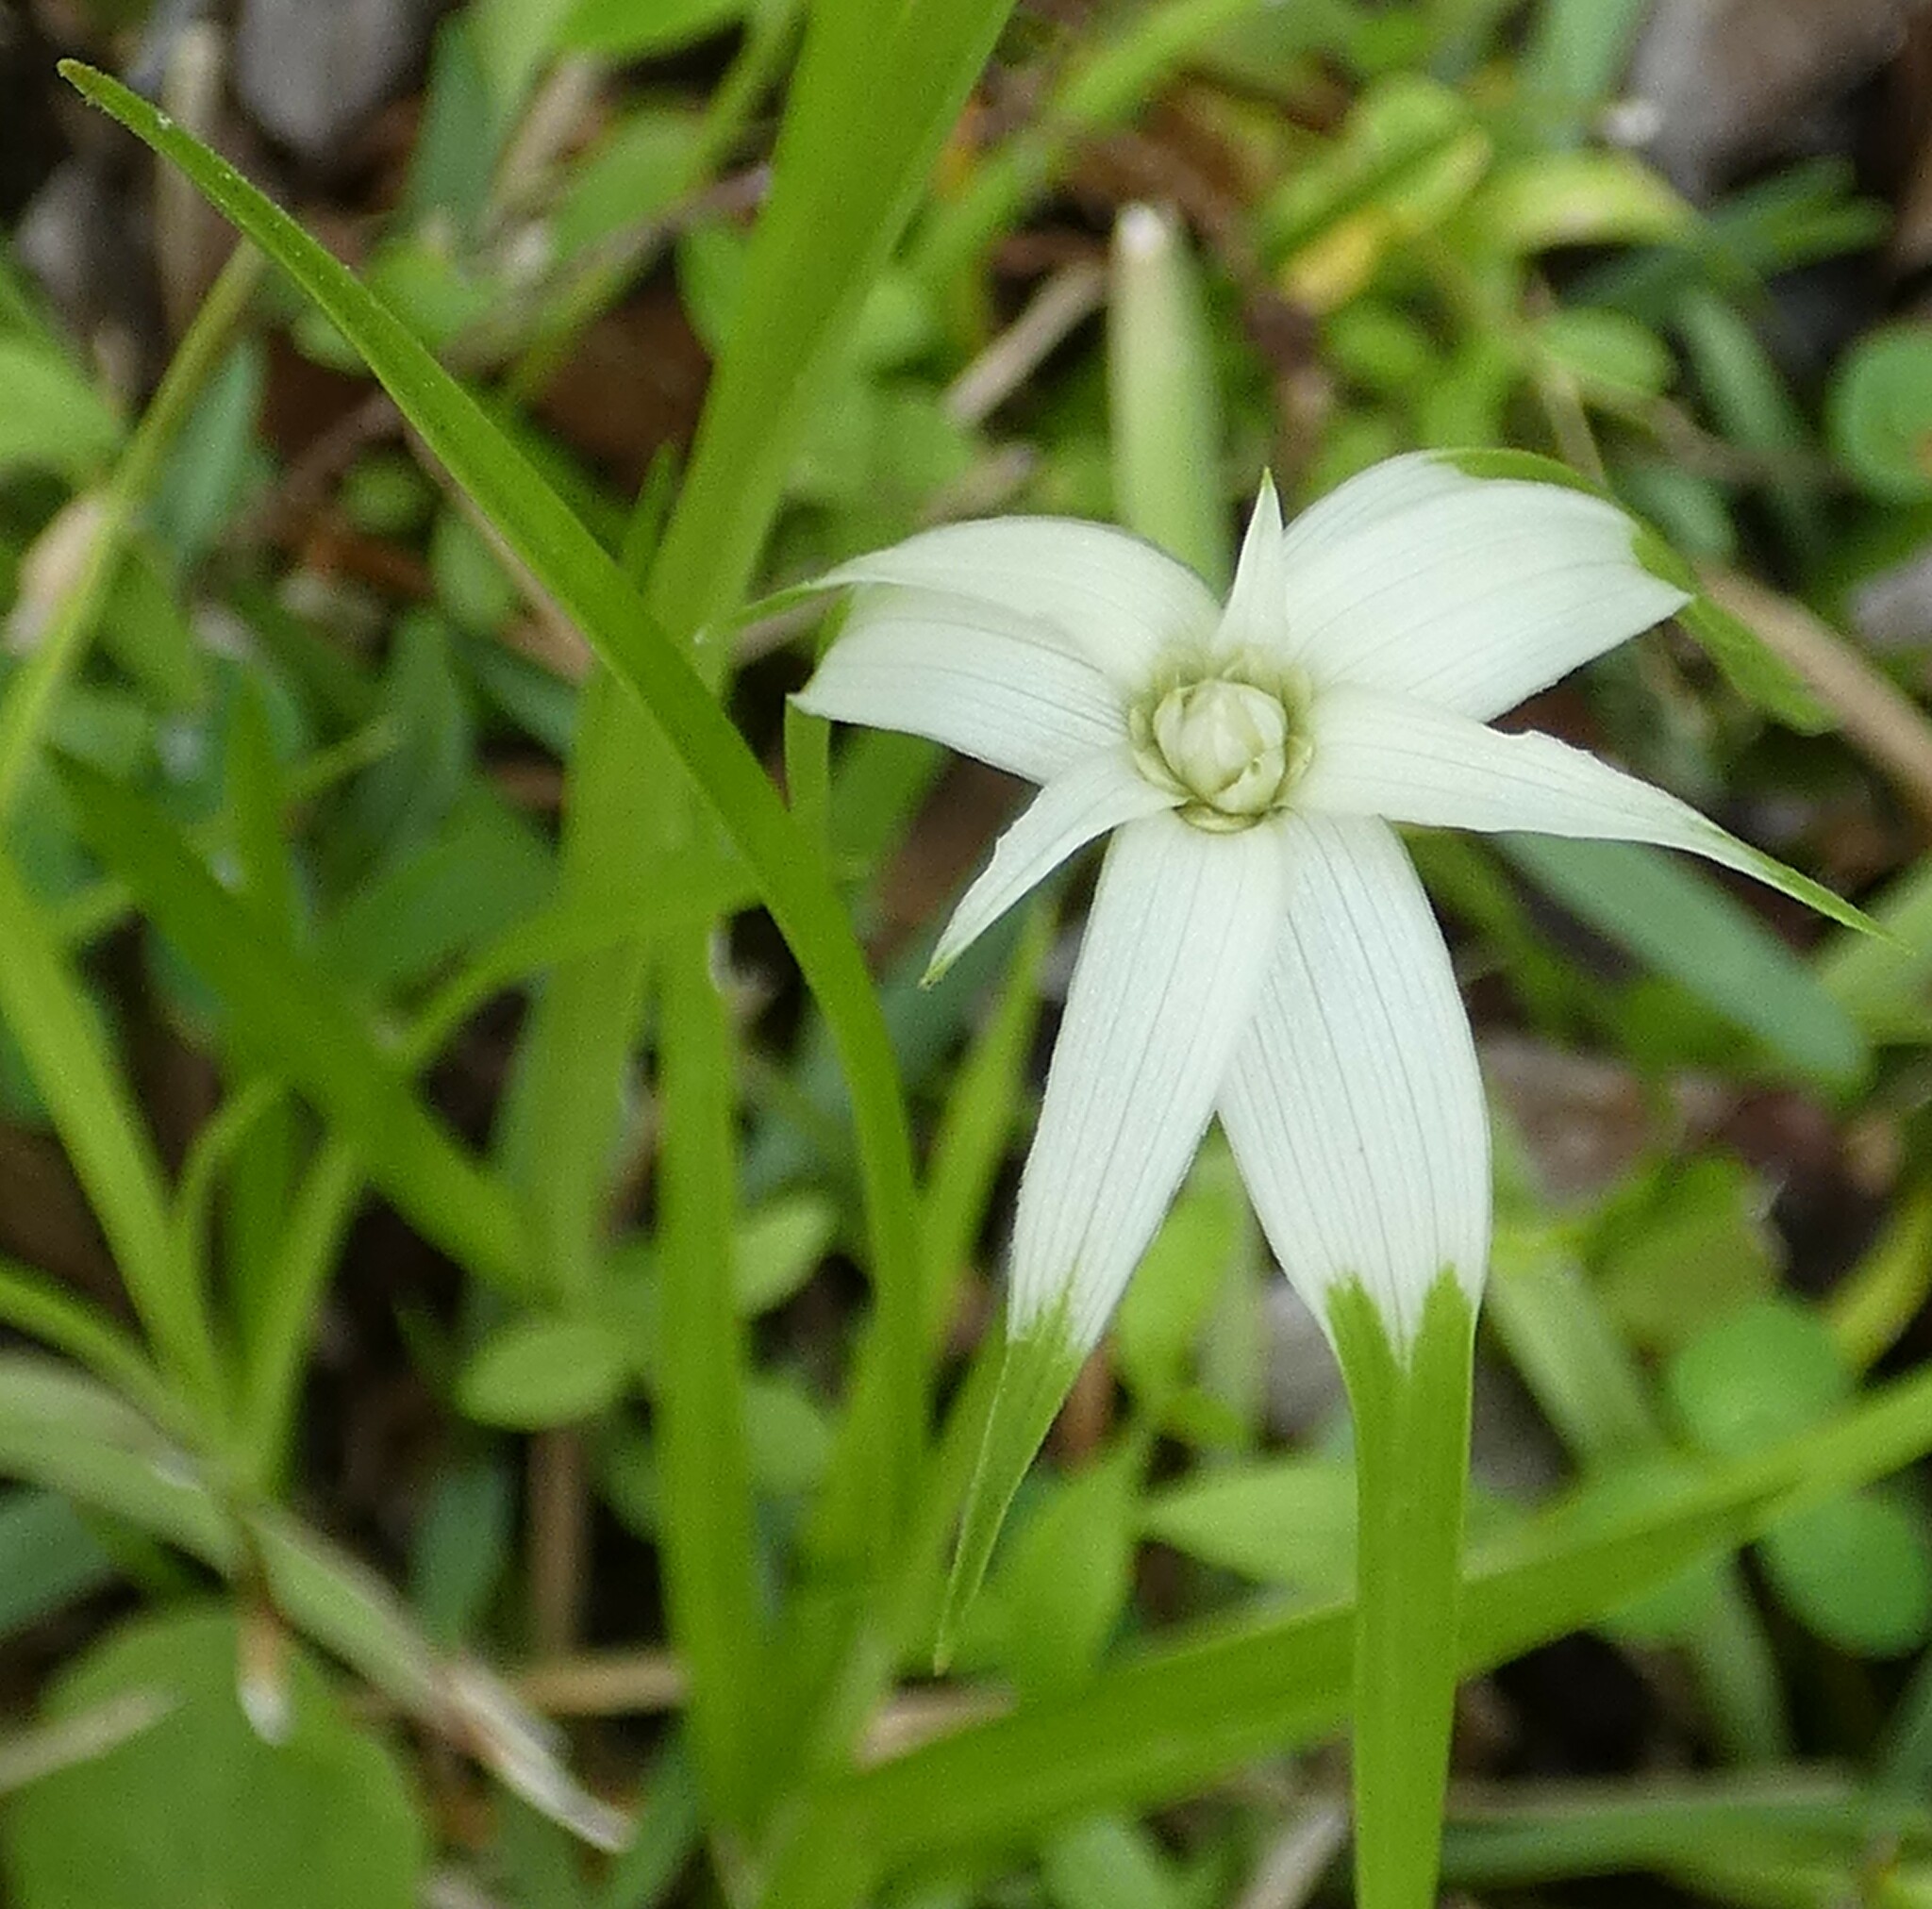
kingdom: Plantae
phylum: Tracheophyta
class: Liliopsida
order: Poales
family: Cyperaceae
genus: Rhynchospora
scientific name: Rhynchospora colorata
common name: Star sedge
